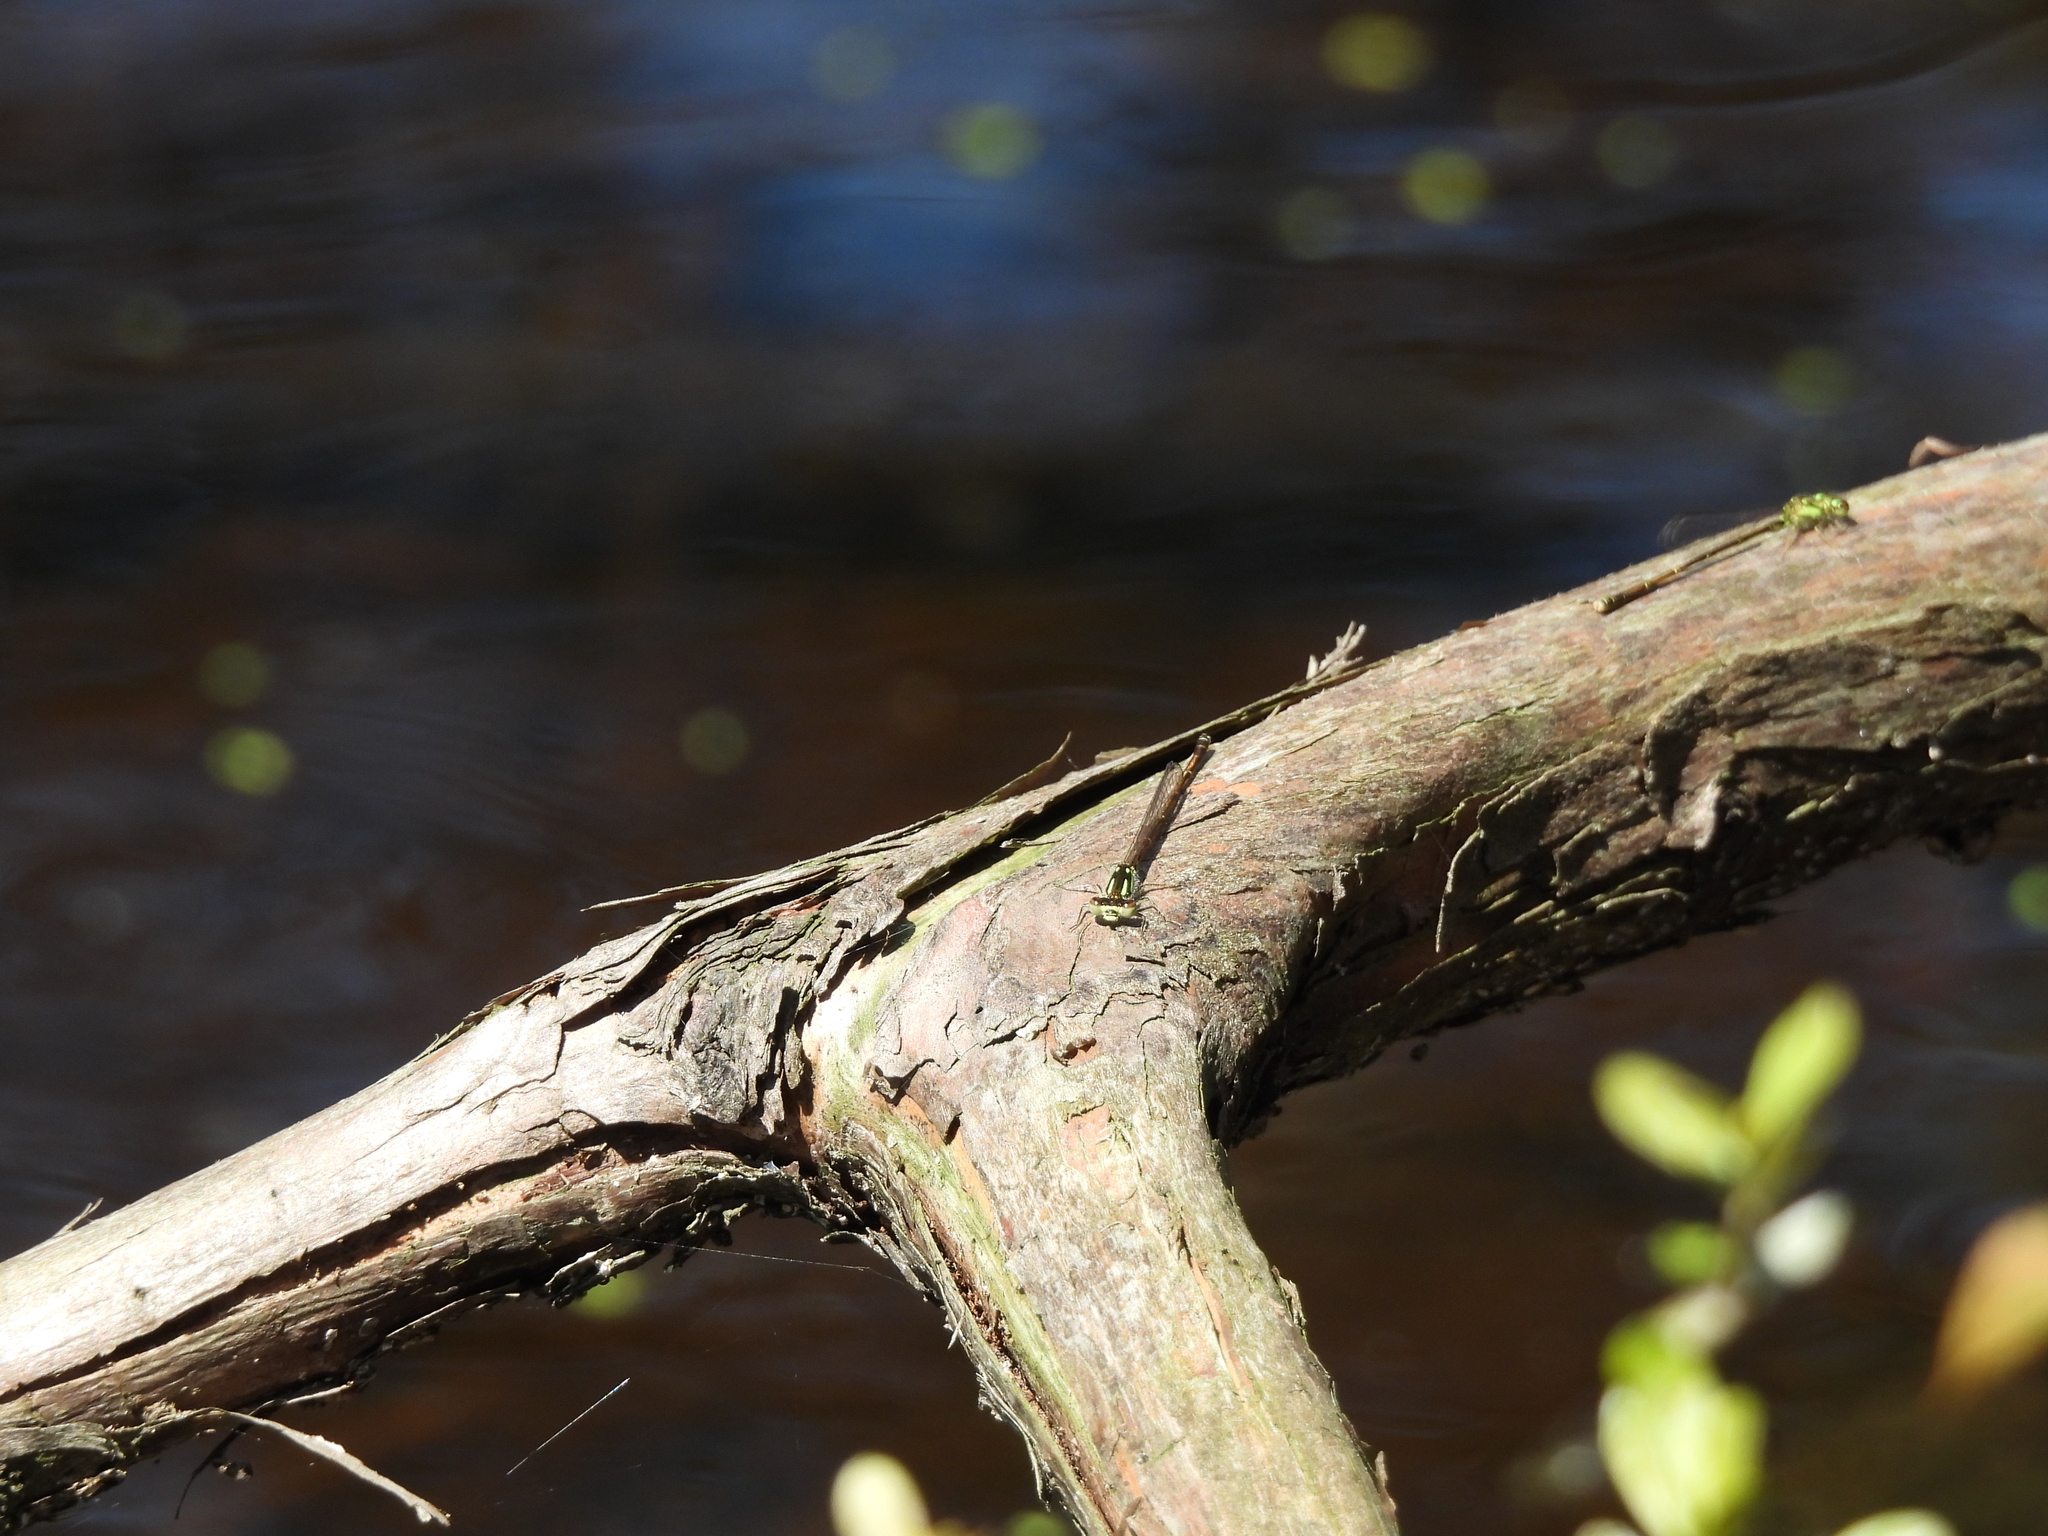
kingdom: Animalia
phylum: Arthropoda
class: Insecta
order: Odonata
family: Coenagrionidae
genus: Ischnura
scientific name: Ischnura posita
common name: Fragile forktail
